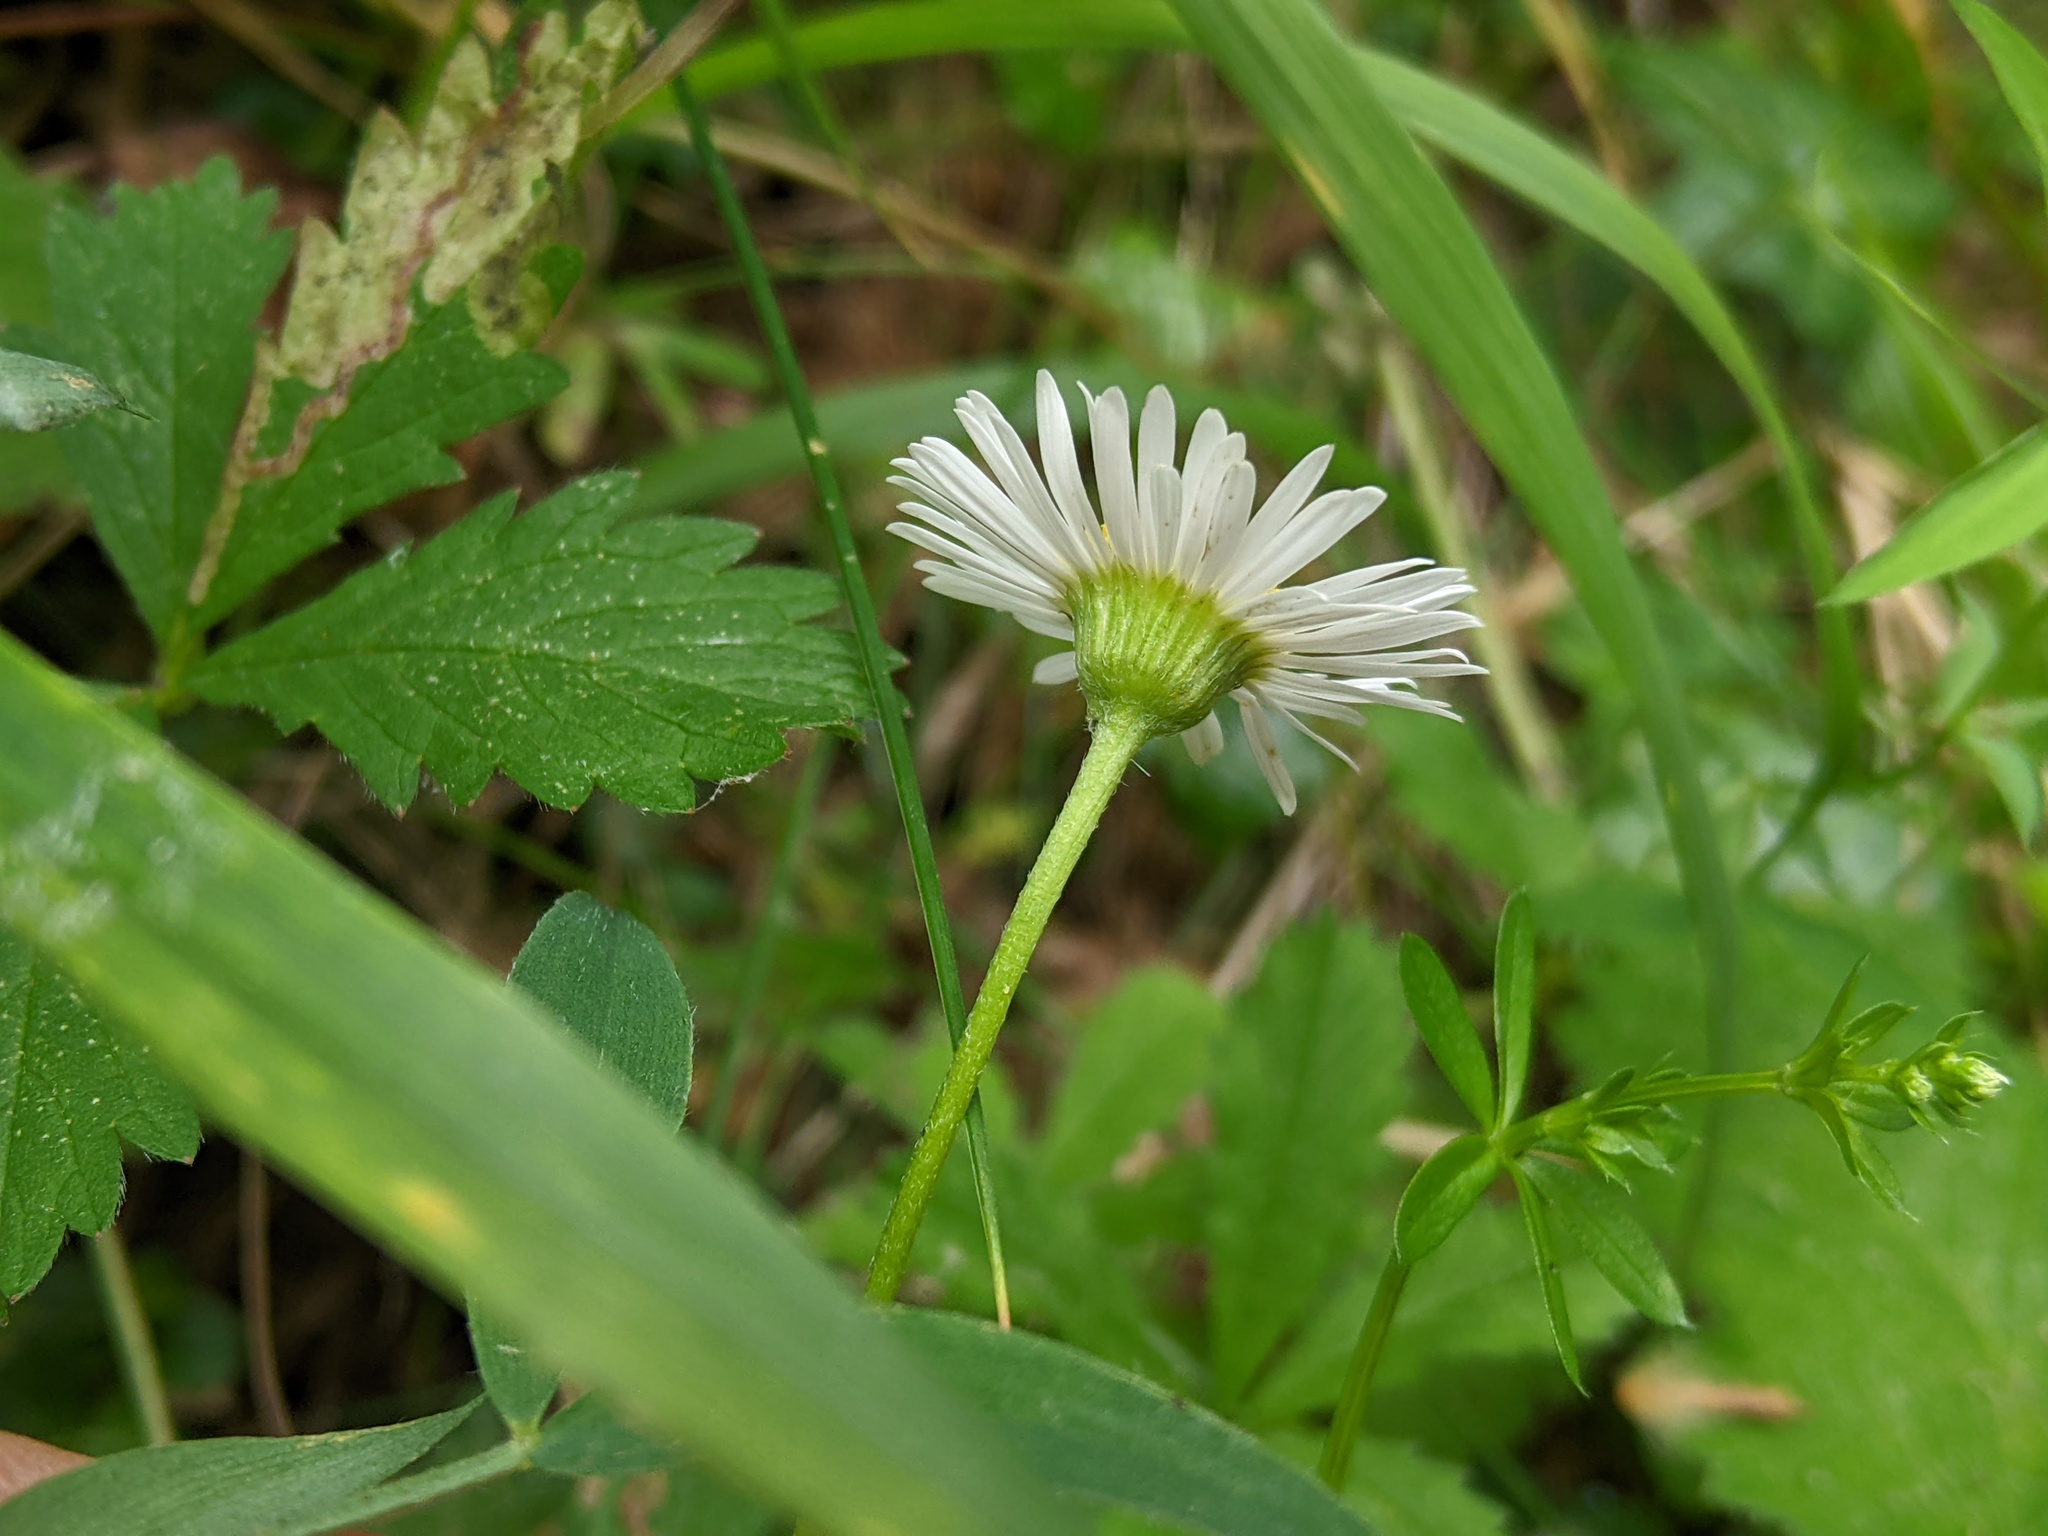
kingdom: Plantae
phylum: Tracheophyta
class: Magnoliopsida
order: Asterales
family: Asteraceae
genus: Erigeron
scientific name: Erigeron karvinskianus
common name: Mexican fleabane
